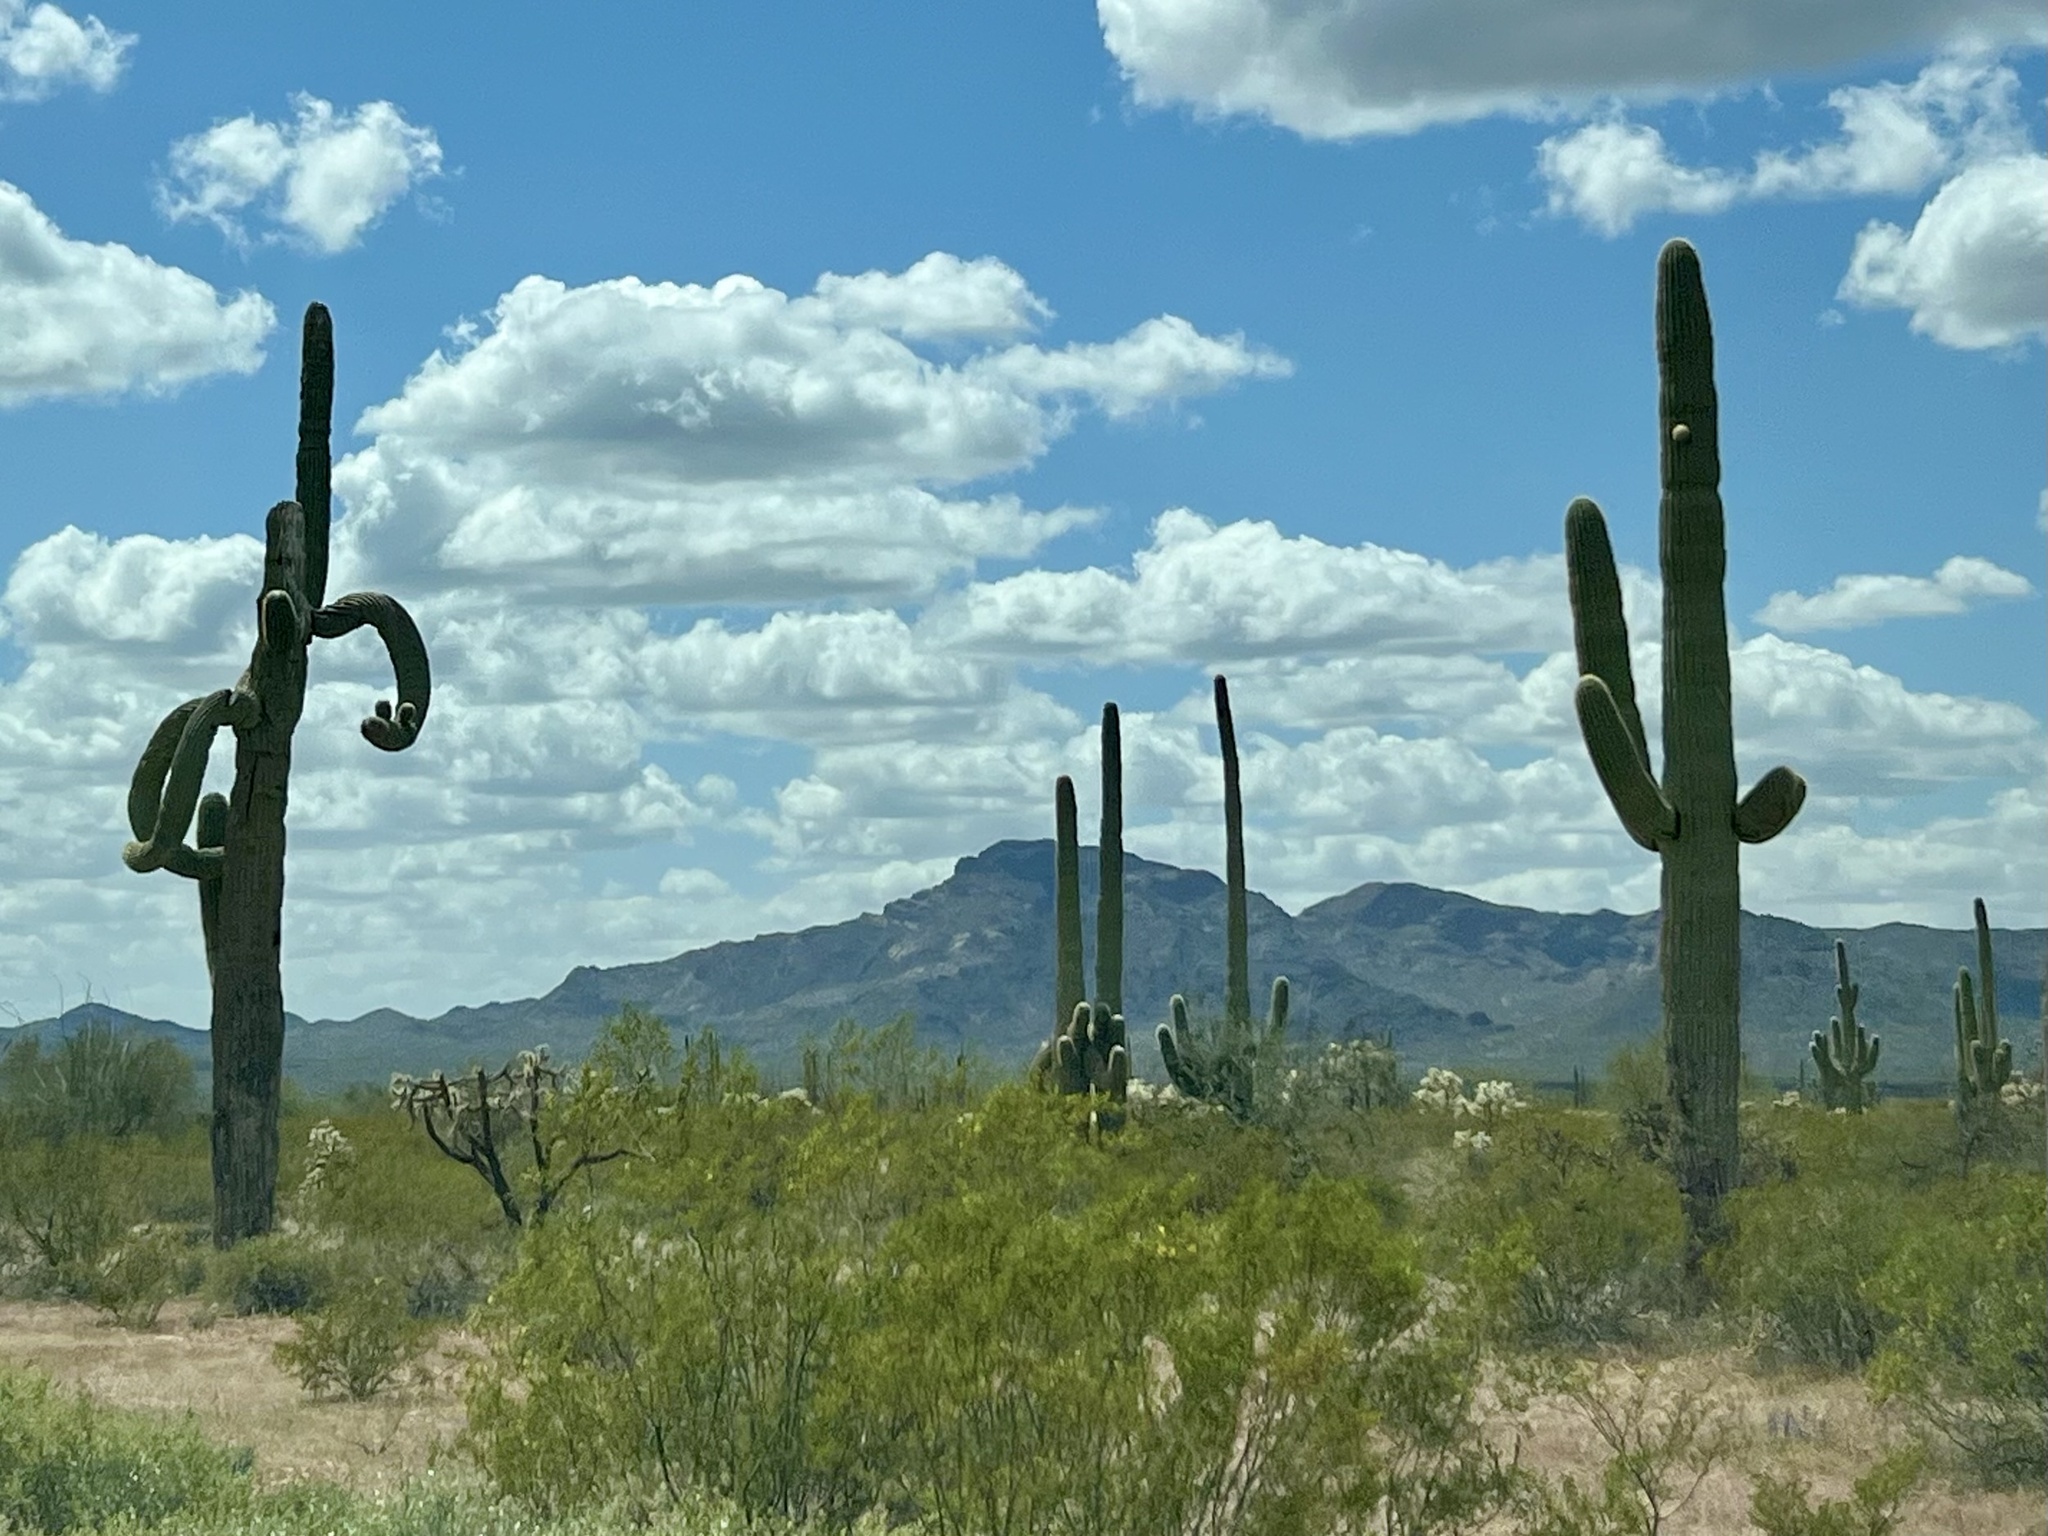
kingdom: Plantae
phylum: Tracheophyta
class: Magnoliopsida
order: Caryophyllales
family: Cactaceae
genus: Carnegiea
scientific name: Carnegiea gigantea
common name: Saguaro
